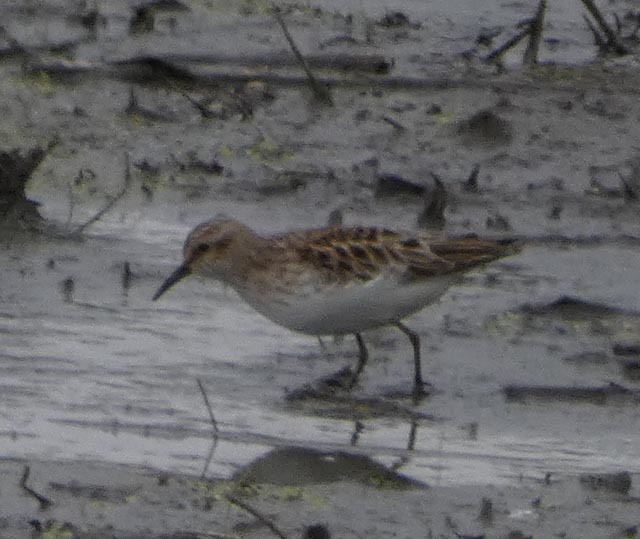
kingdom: Animalia
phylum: Chordata
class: Aves
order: Charadriiformes
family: Scolopacidae
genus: Calidris
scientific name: Calidris minutilla
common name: Least sandpiper
